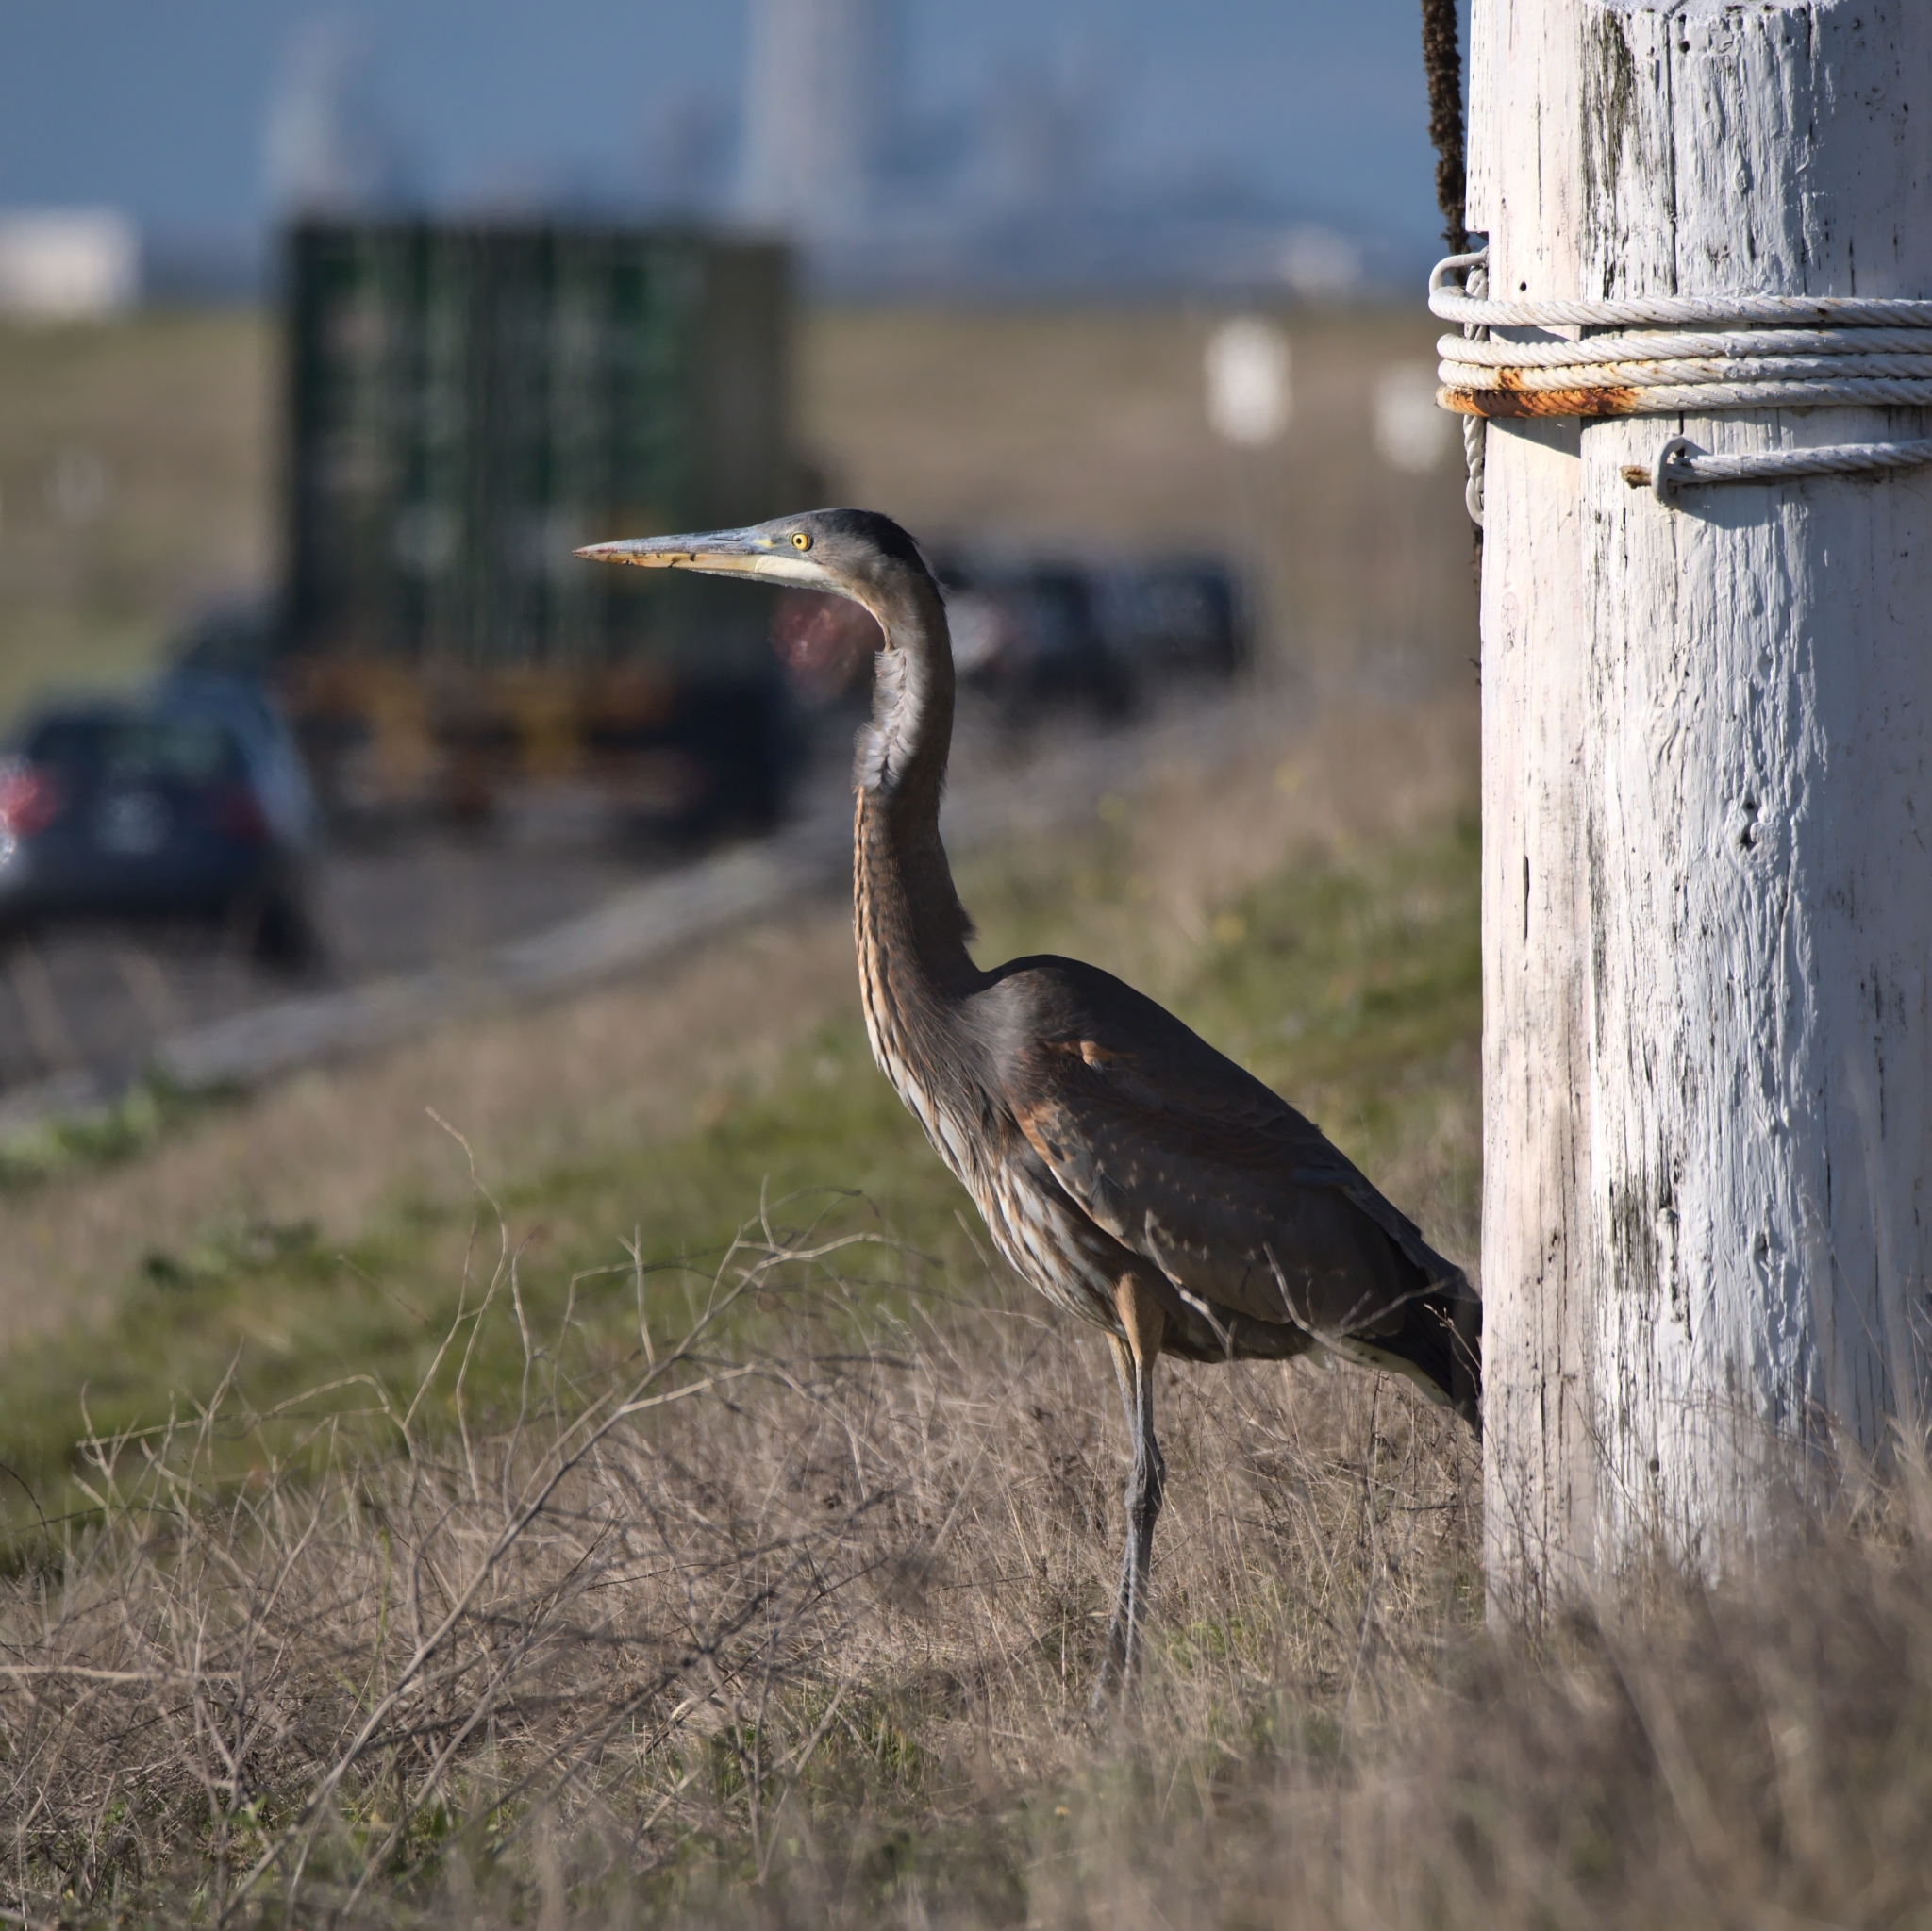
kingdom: Animalia
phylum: Chordata
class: Aves
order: Pelecaniformes
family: Ardeidae
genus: Ardea
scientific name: Ardea herodias
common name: Great blue heron
